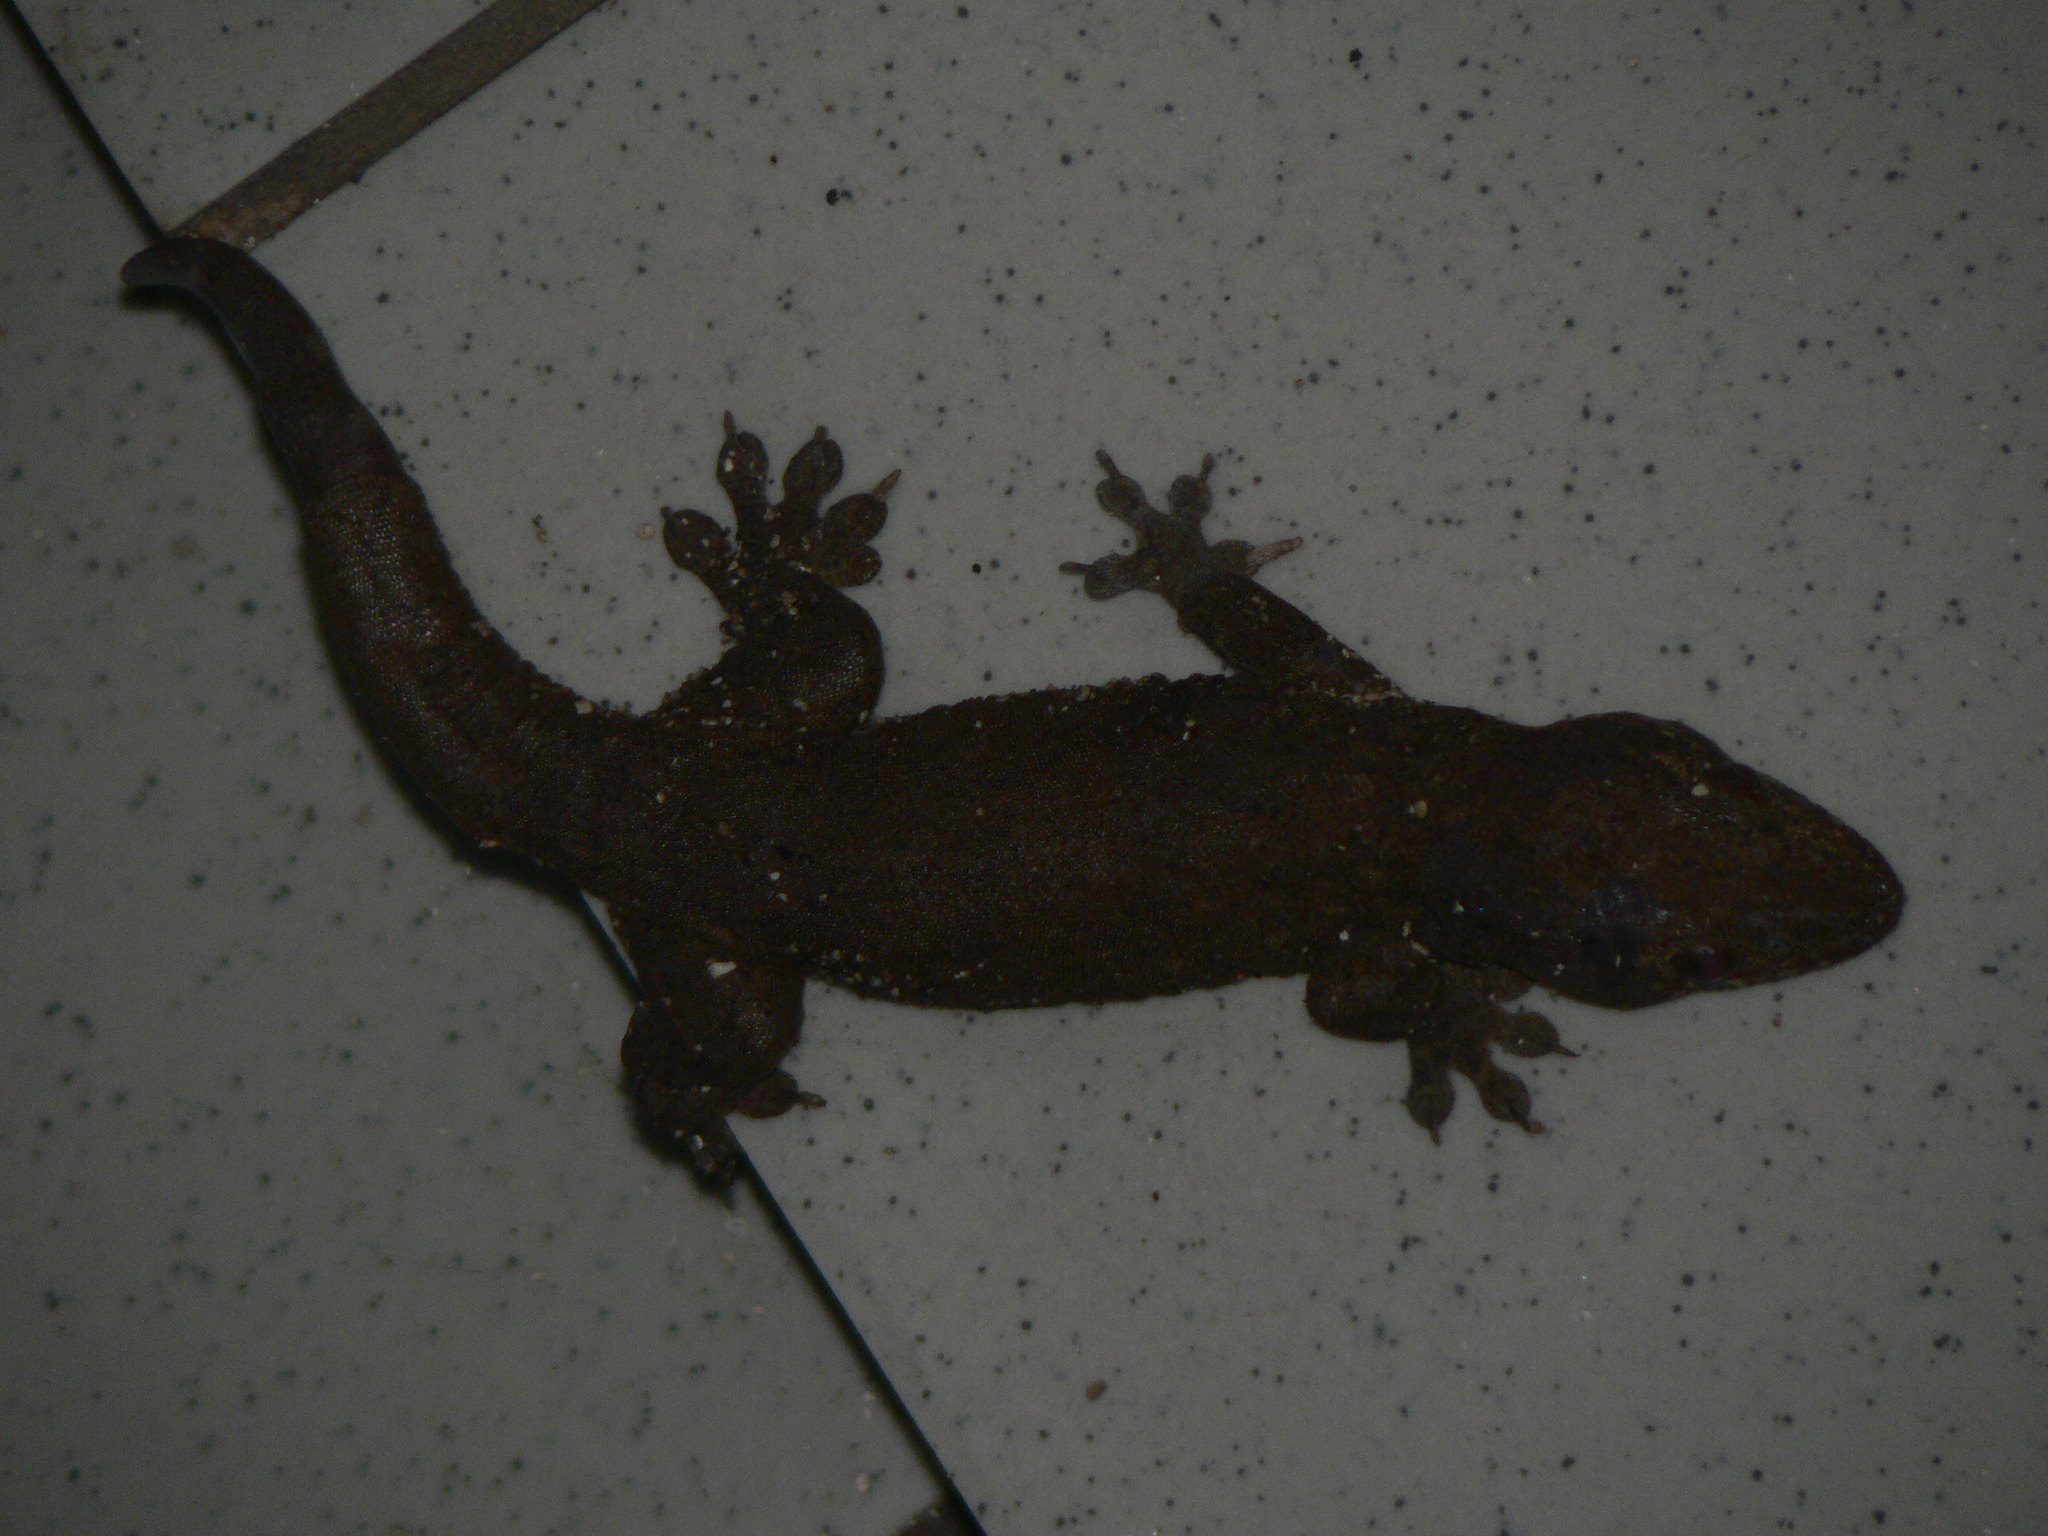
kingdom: Animalia
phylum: Chordata
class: Squamata
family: Gekkonidae
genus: Gehyra
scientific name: Gehyra oceanica
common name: Pacific dtella
